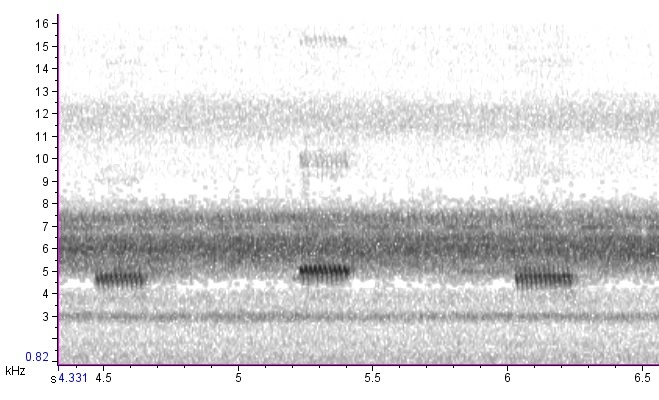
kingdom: Animalia
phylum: Arthropoda
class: Insecta
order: Orthoptera
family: Gryllidae
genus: Hapithus
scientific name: Hapithus saltator
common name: Jumping bush cricket
